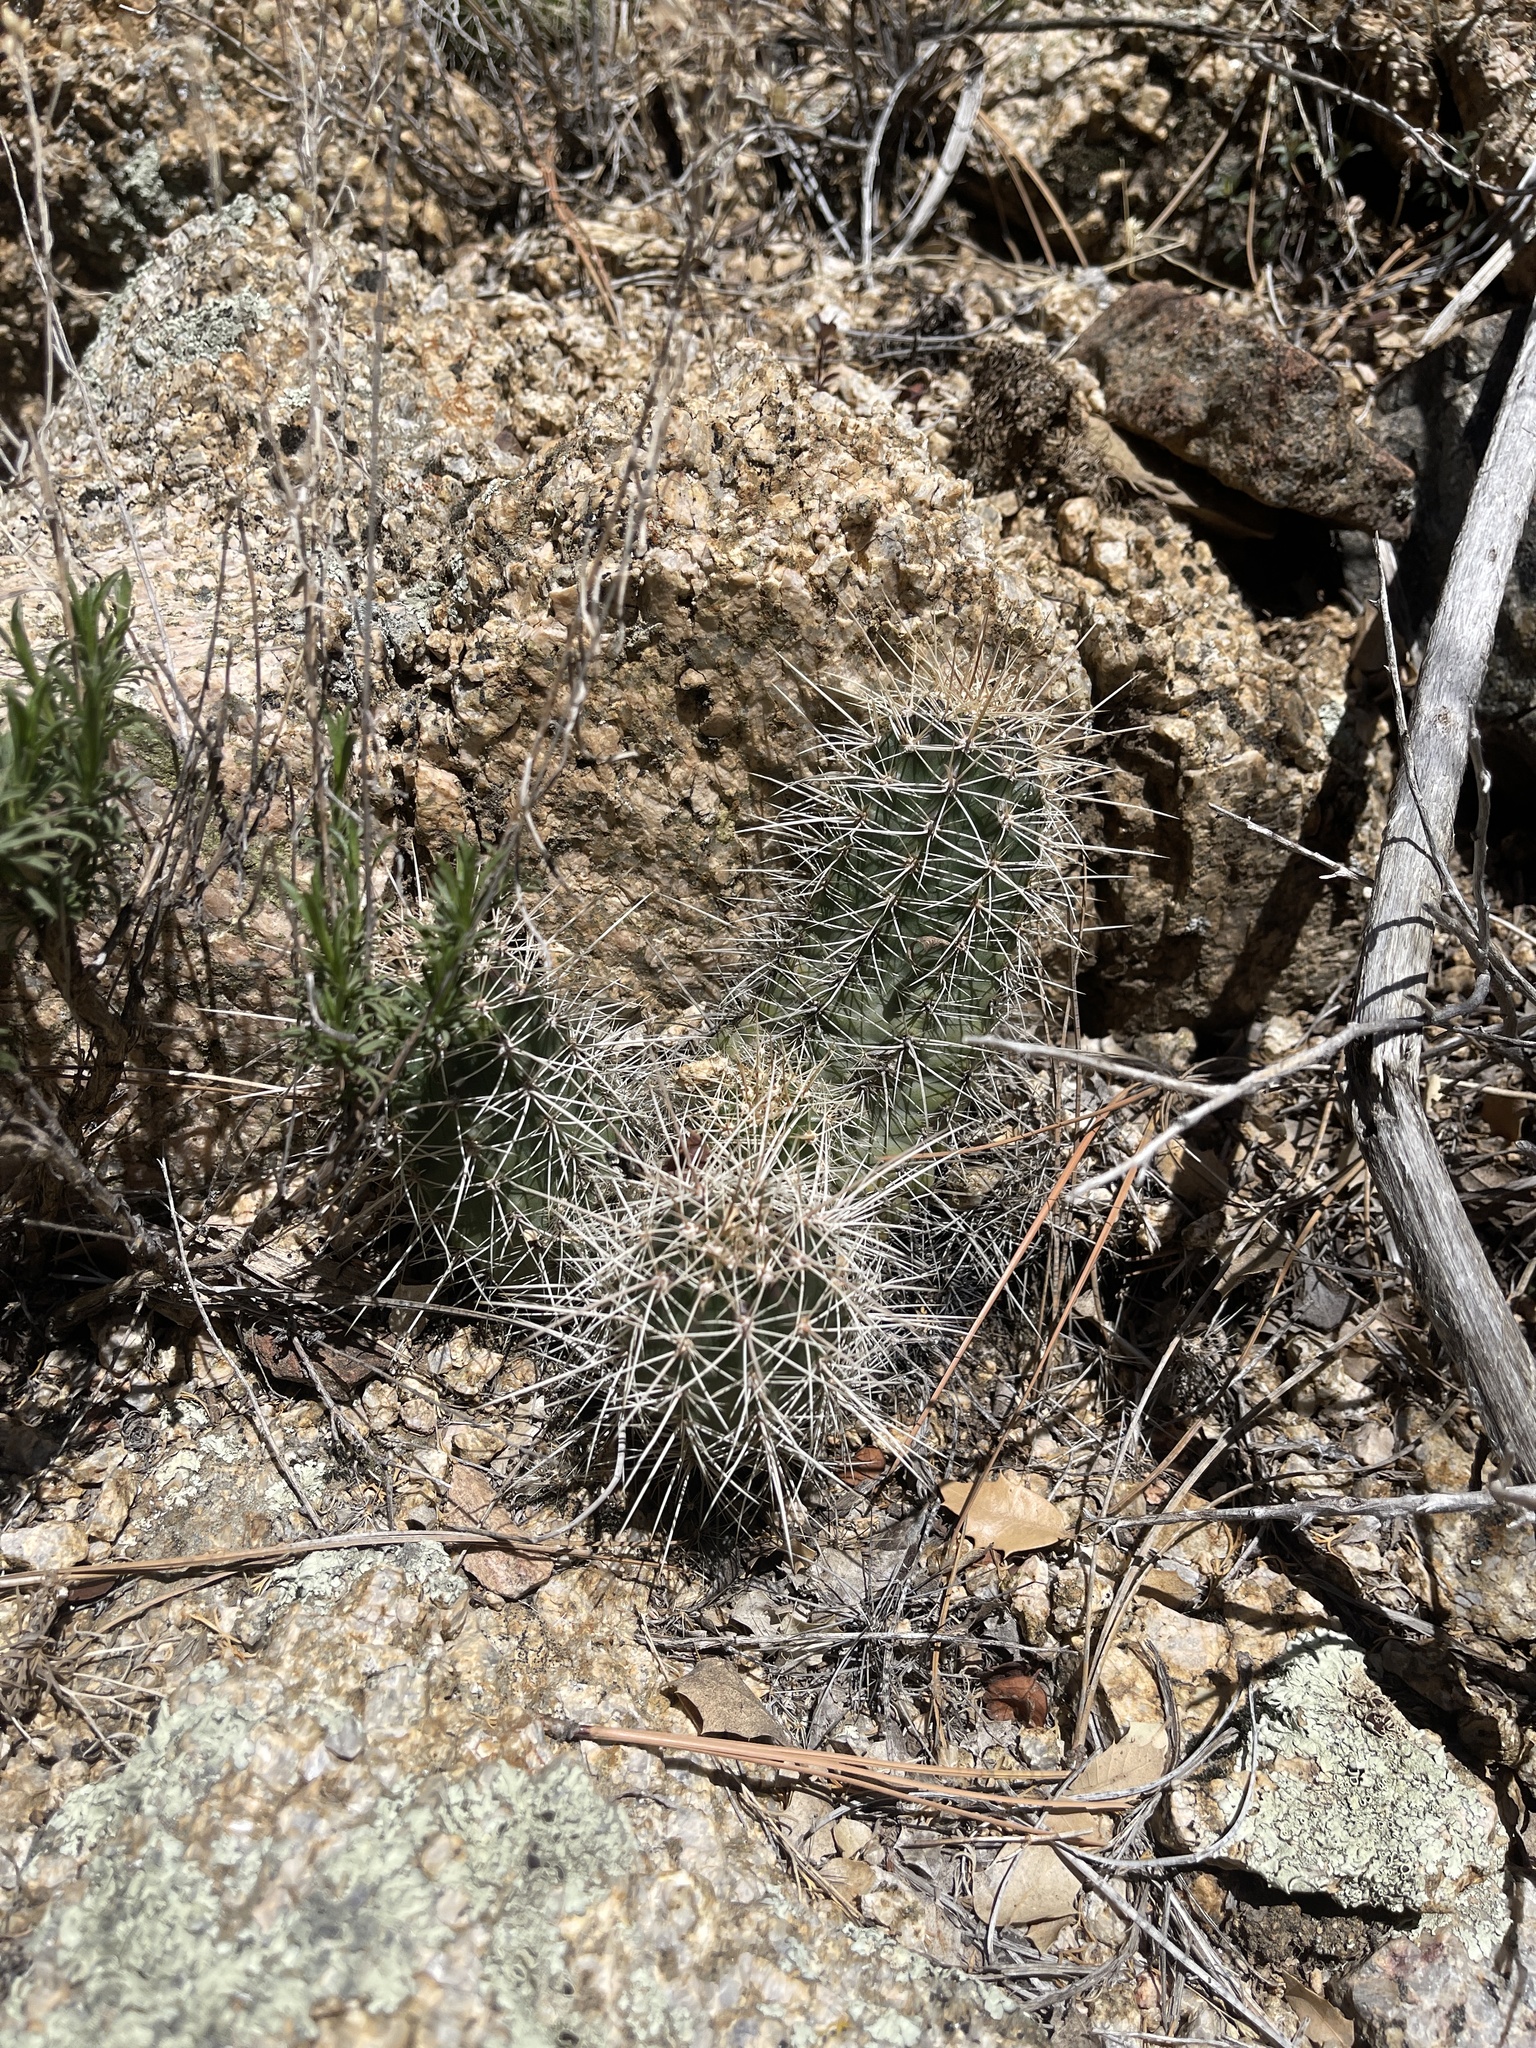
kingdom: Plantae
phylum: Tracheophyta
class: Magnoliopsida
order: Caryophyllales
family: Cactaceae
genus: Echinocereus
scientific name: Echinocereus bakeri
